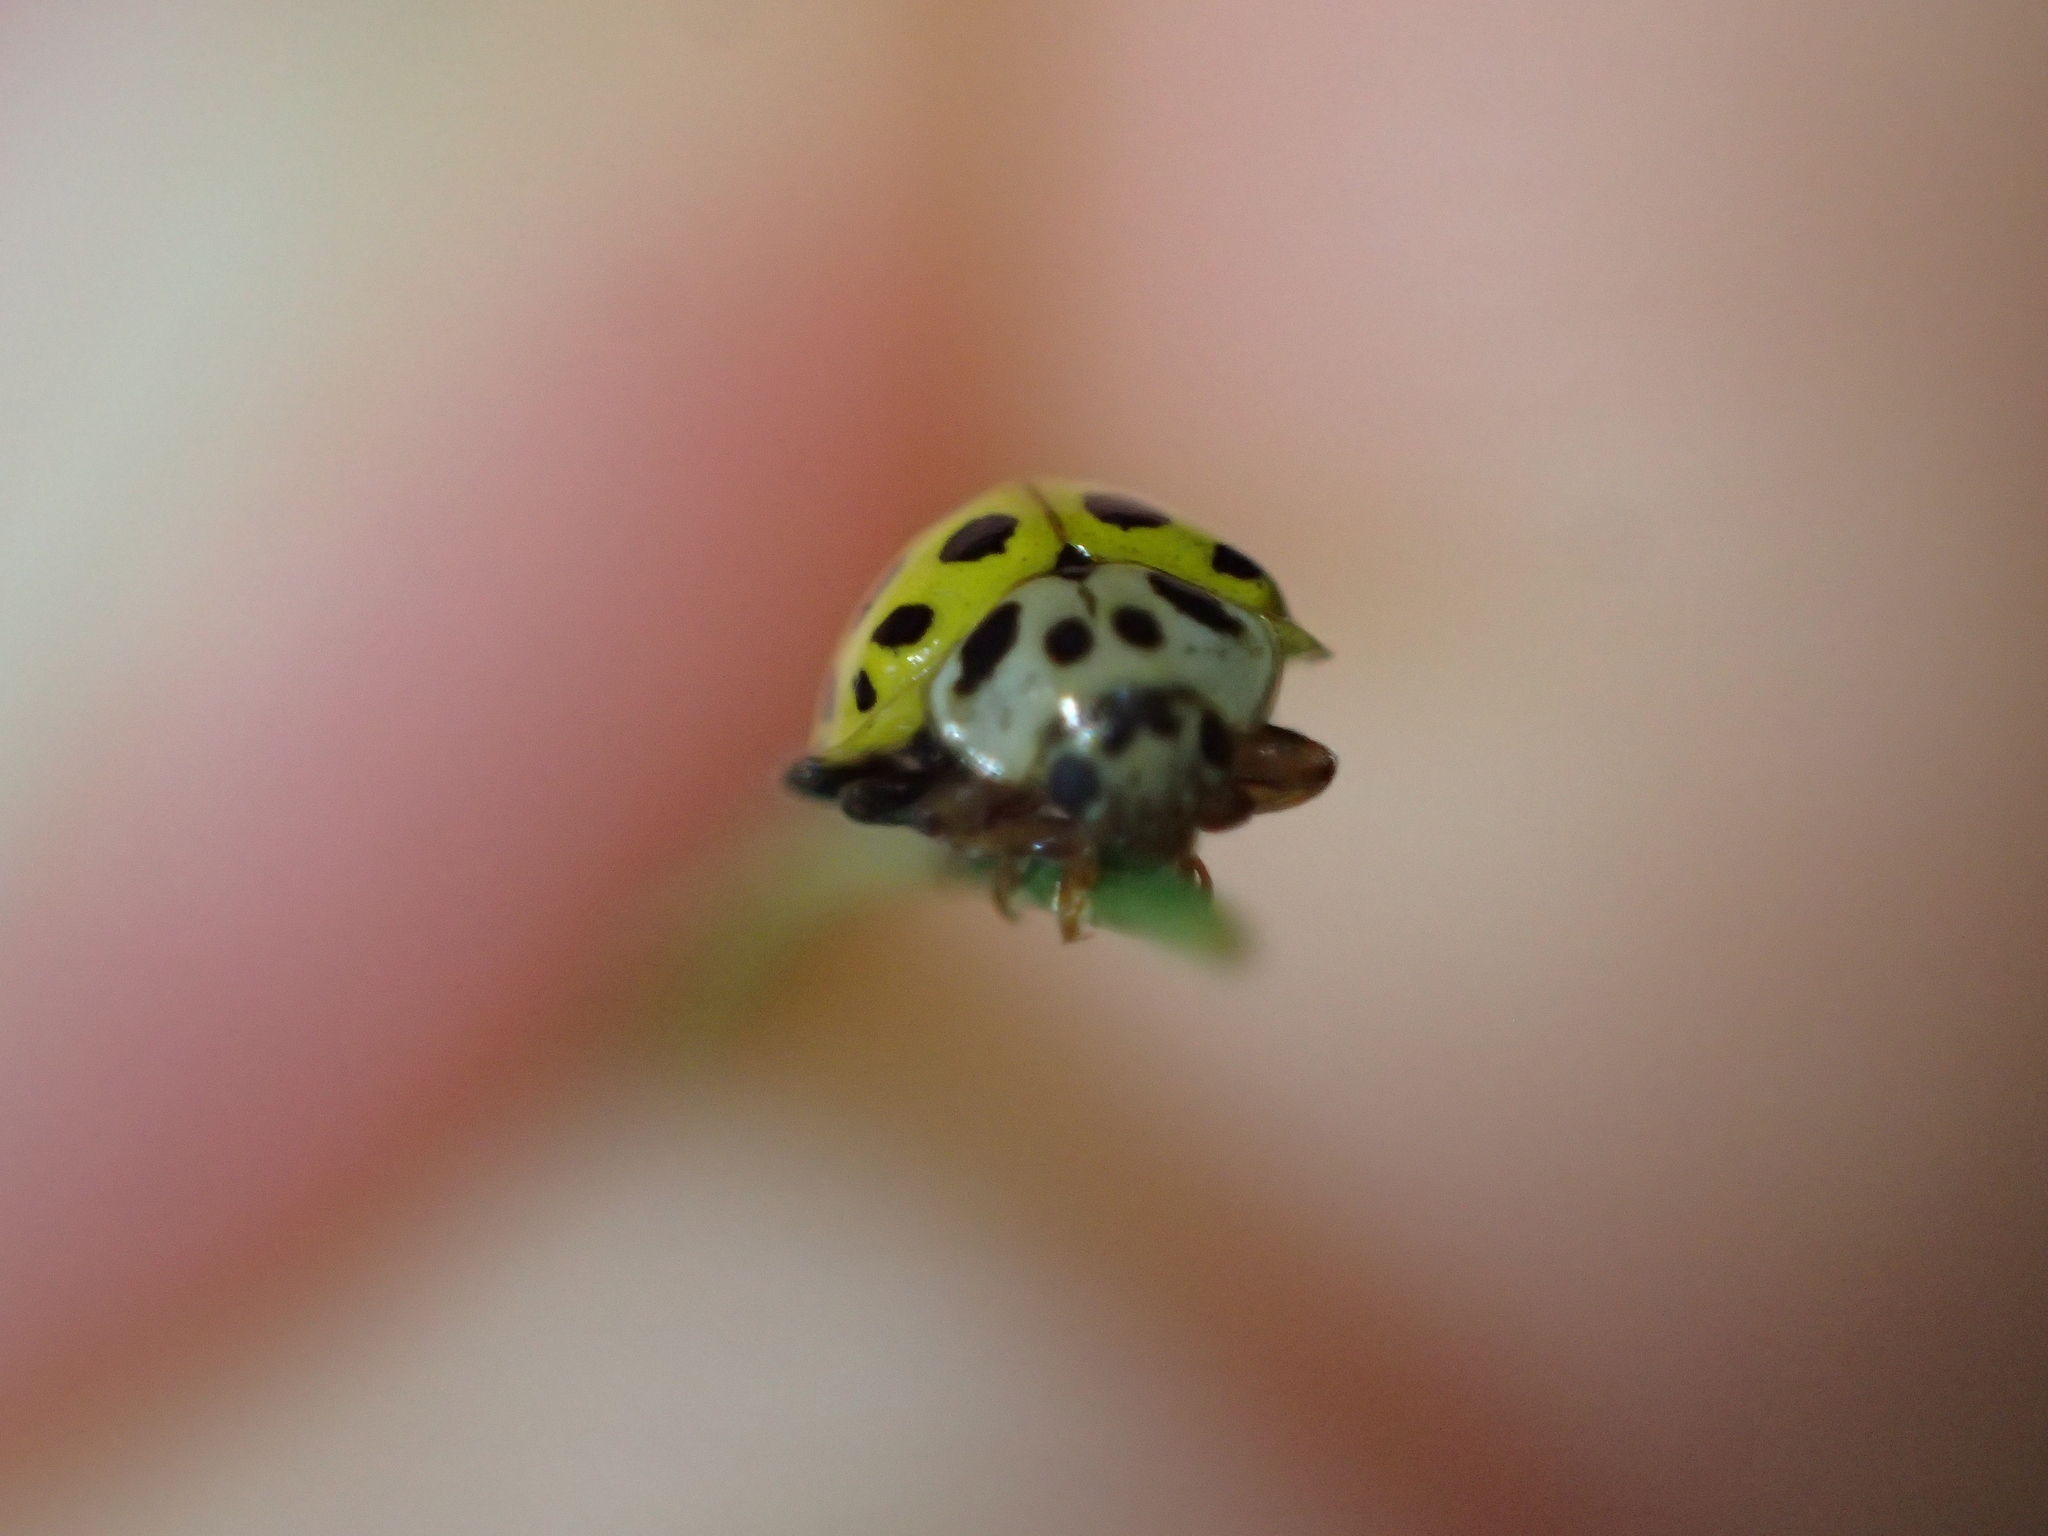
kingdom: Animalia
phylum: Arthropoda
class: Insecta
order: Coleoptera
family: Coccinellidae
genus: Psyllobora
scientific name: Psyllobora vigintiduopunctata
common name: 22-spot ladybird
